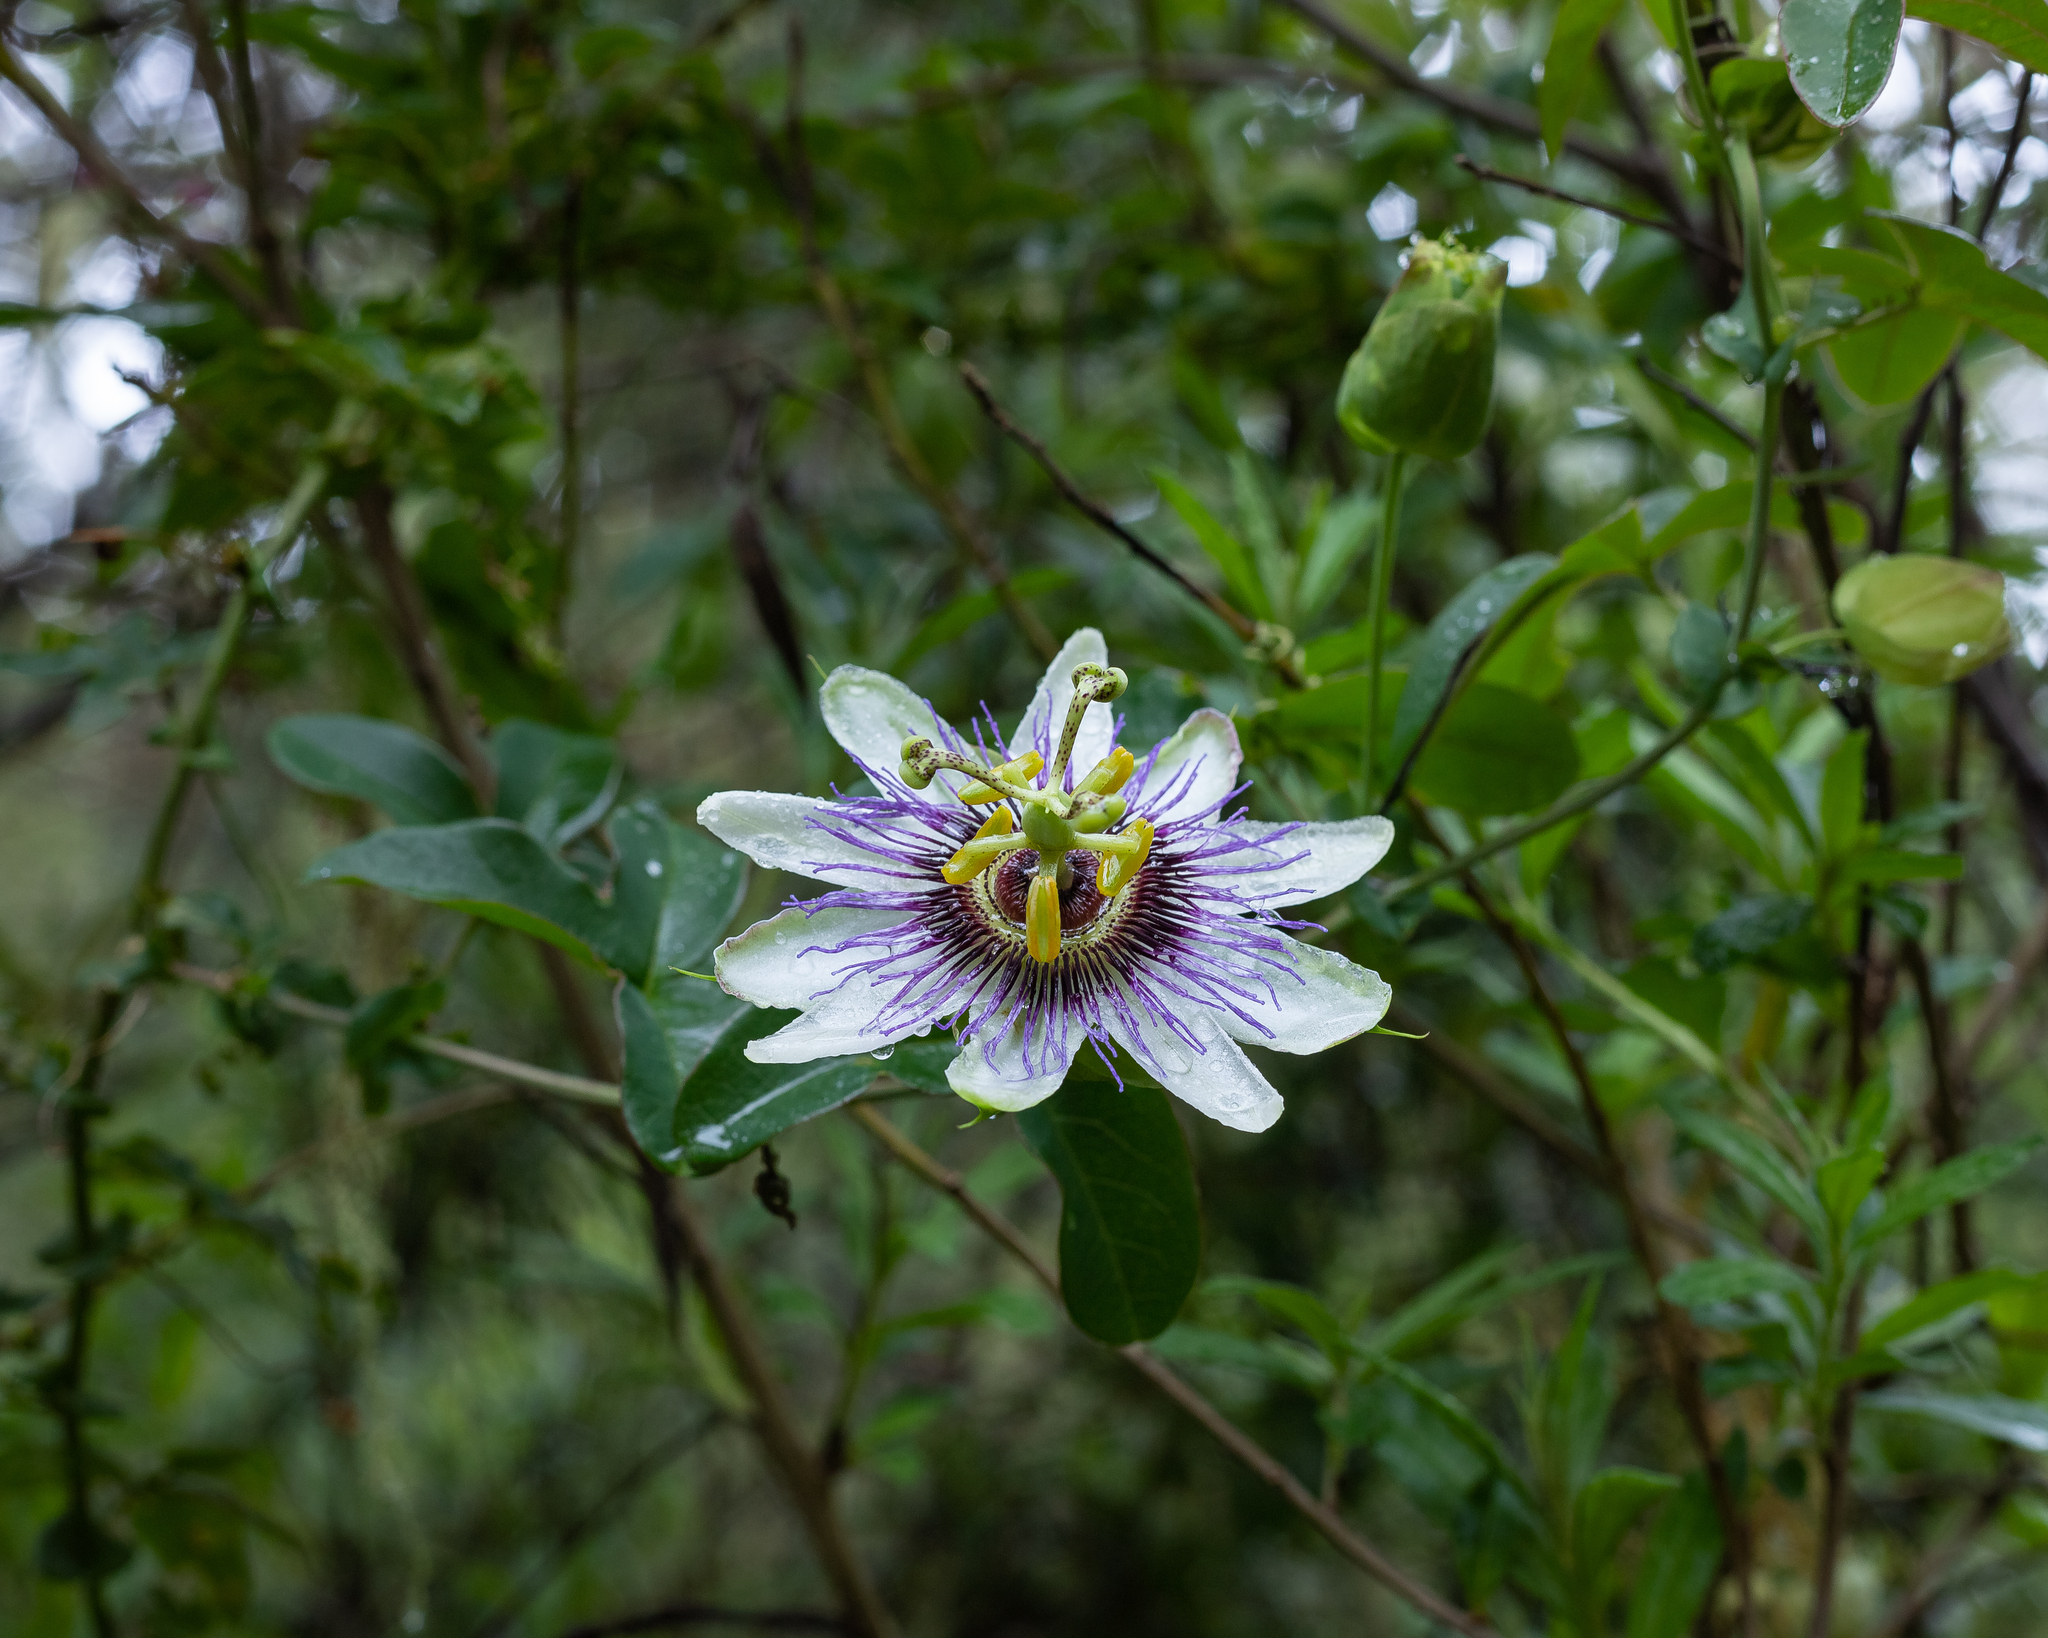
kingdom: Plantae
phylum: Tracheophyta
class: Magnoliopsida
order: Malpighiales
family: Passifloraceae
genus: Passiflora
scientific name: Passiflora caerulea
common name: Blue passionflower
